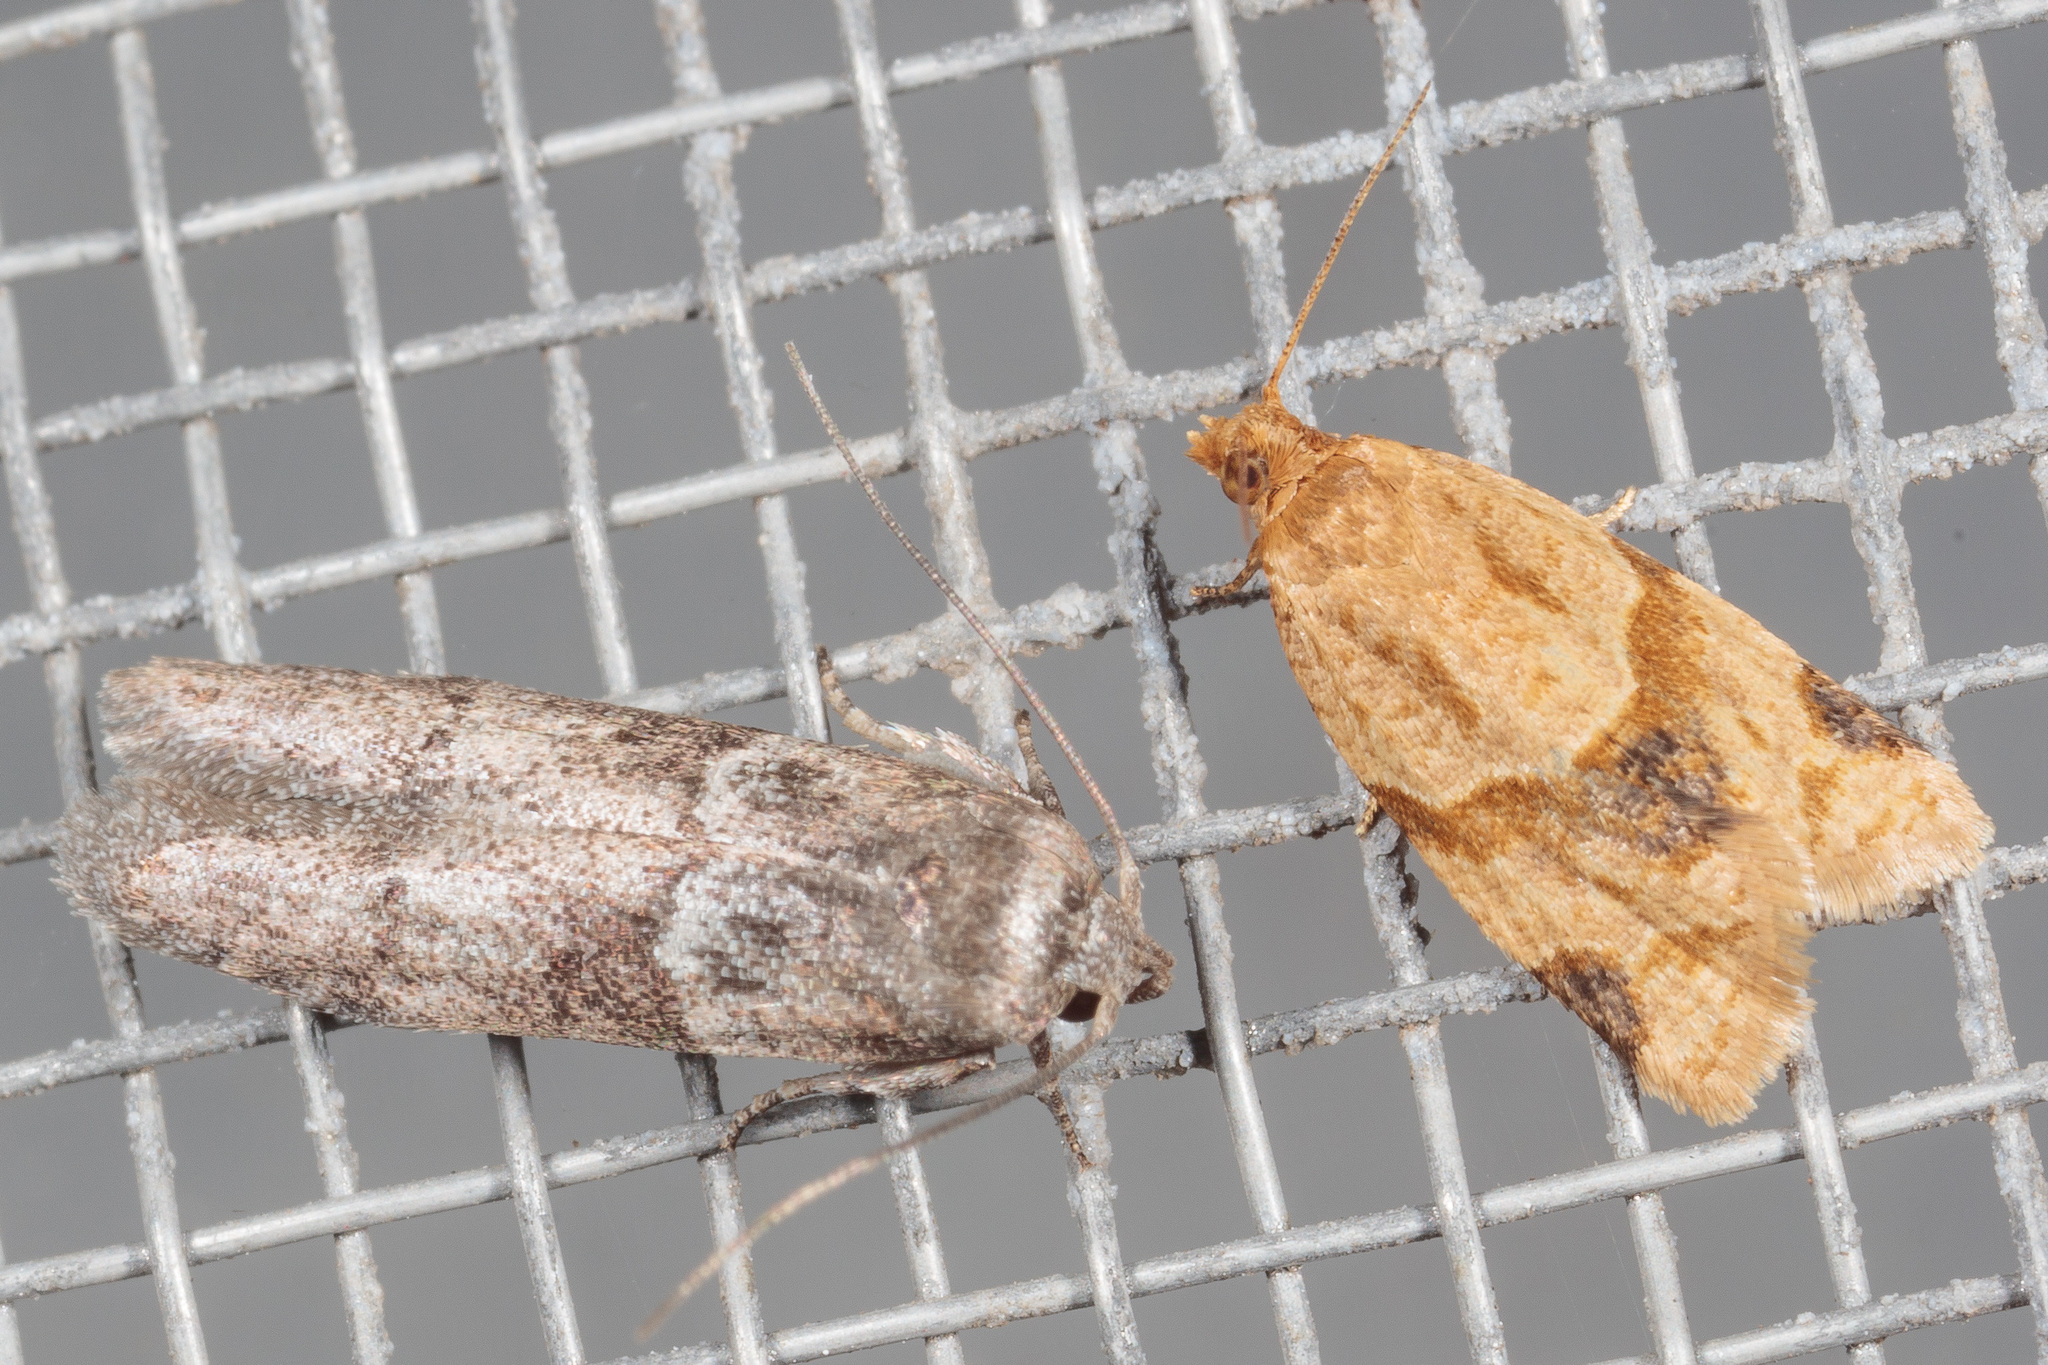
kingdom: Animalia
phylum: Arthropoda
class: Insecta
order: Lepidoptera
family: Tortricidae
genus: Clepsis
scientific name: Clepsis peritana
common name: Garden tortrix
